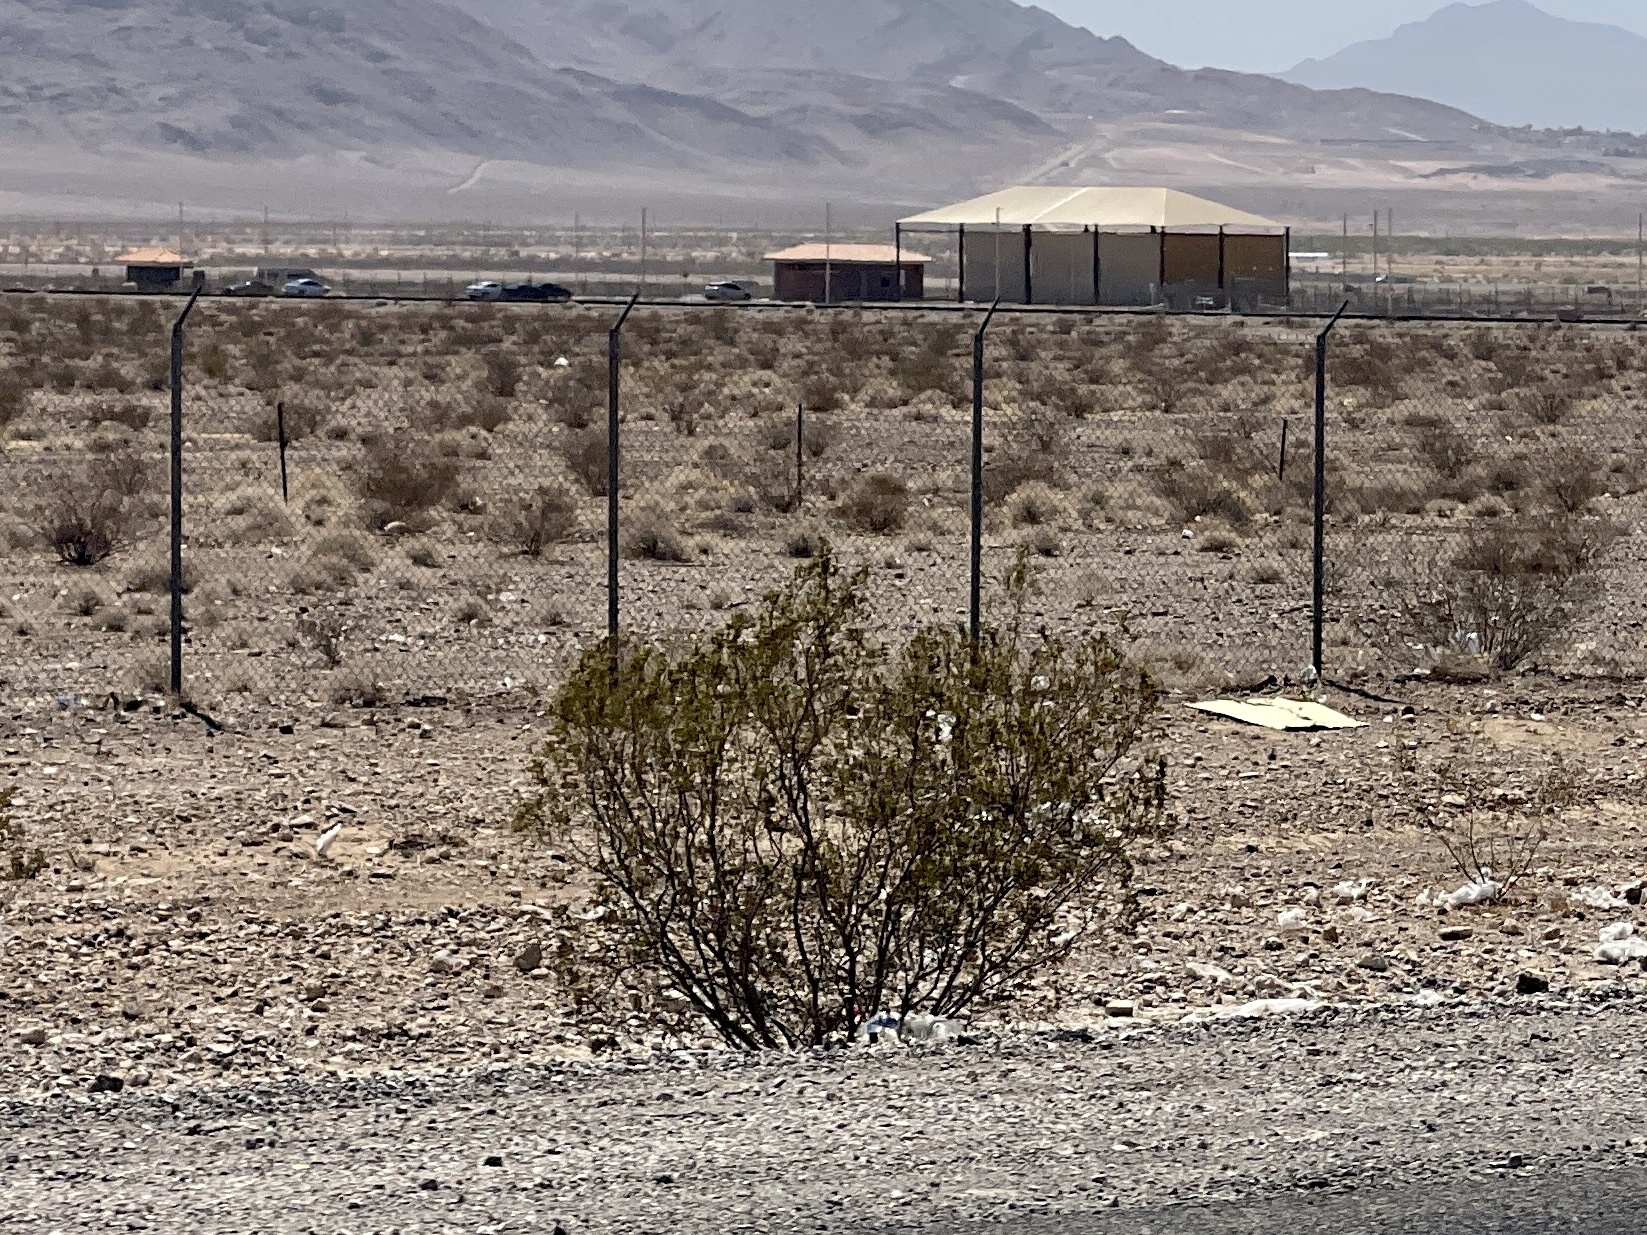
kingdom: Plantae
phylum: Tracheophyta
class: Magnoliopsida
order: Zygophyllales
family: Zygophyllaceae
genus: Larrea
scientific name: Larrea tridentata
